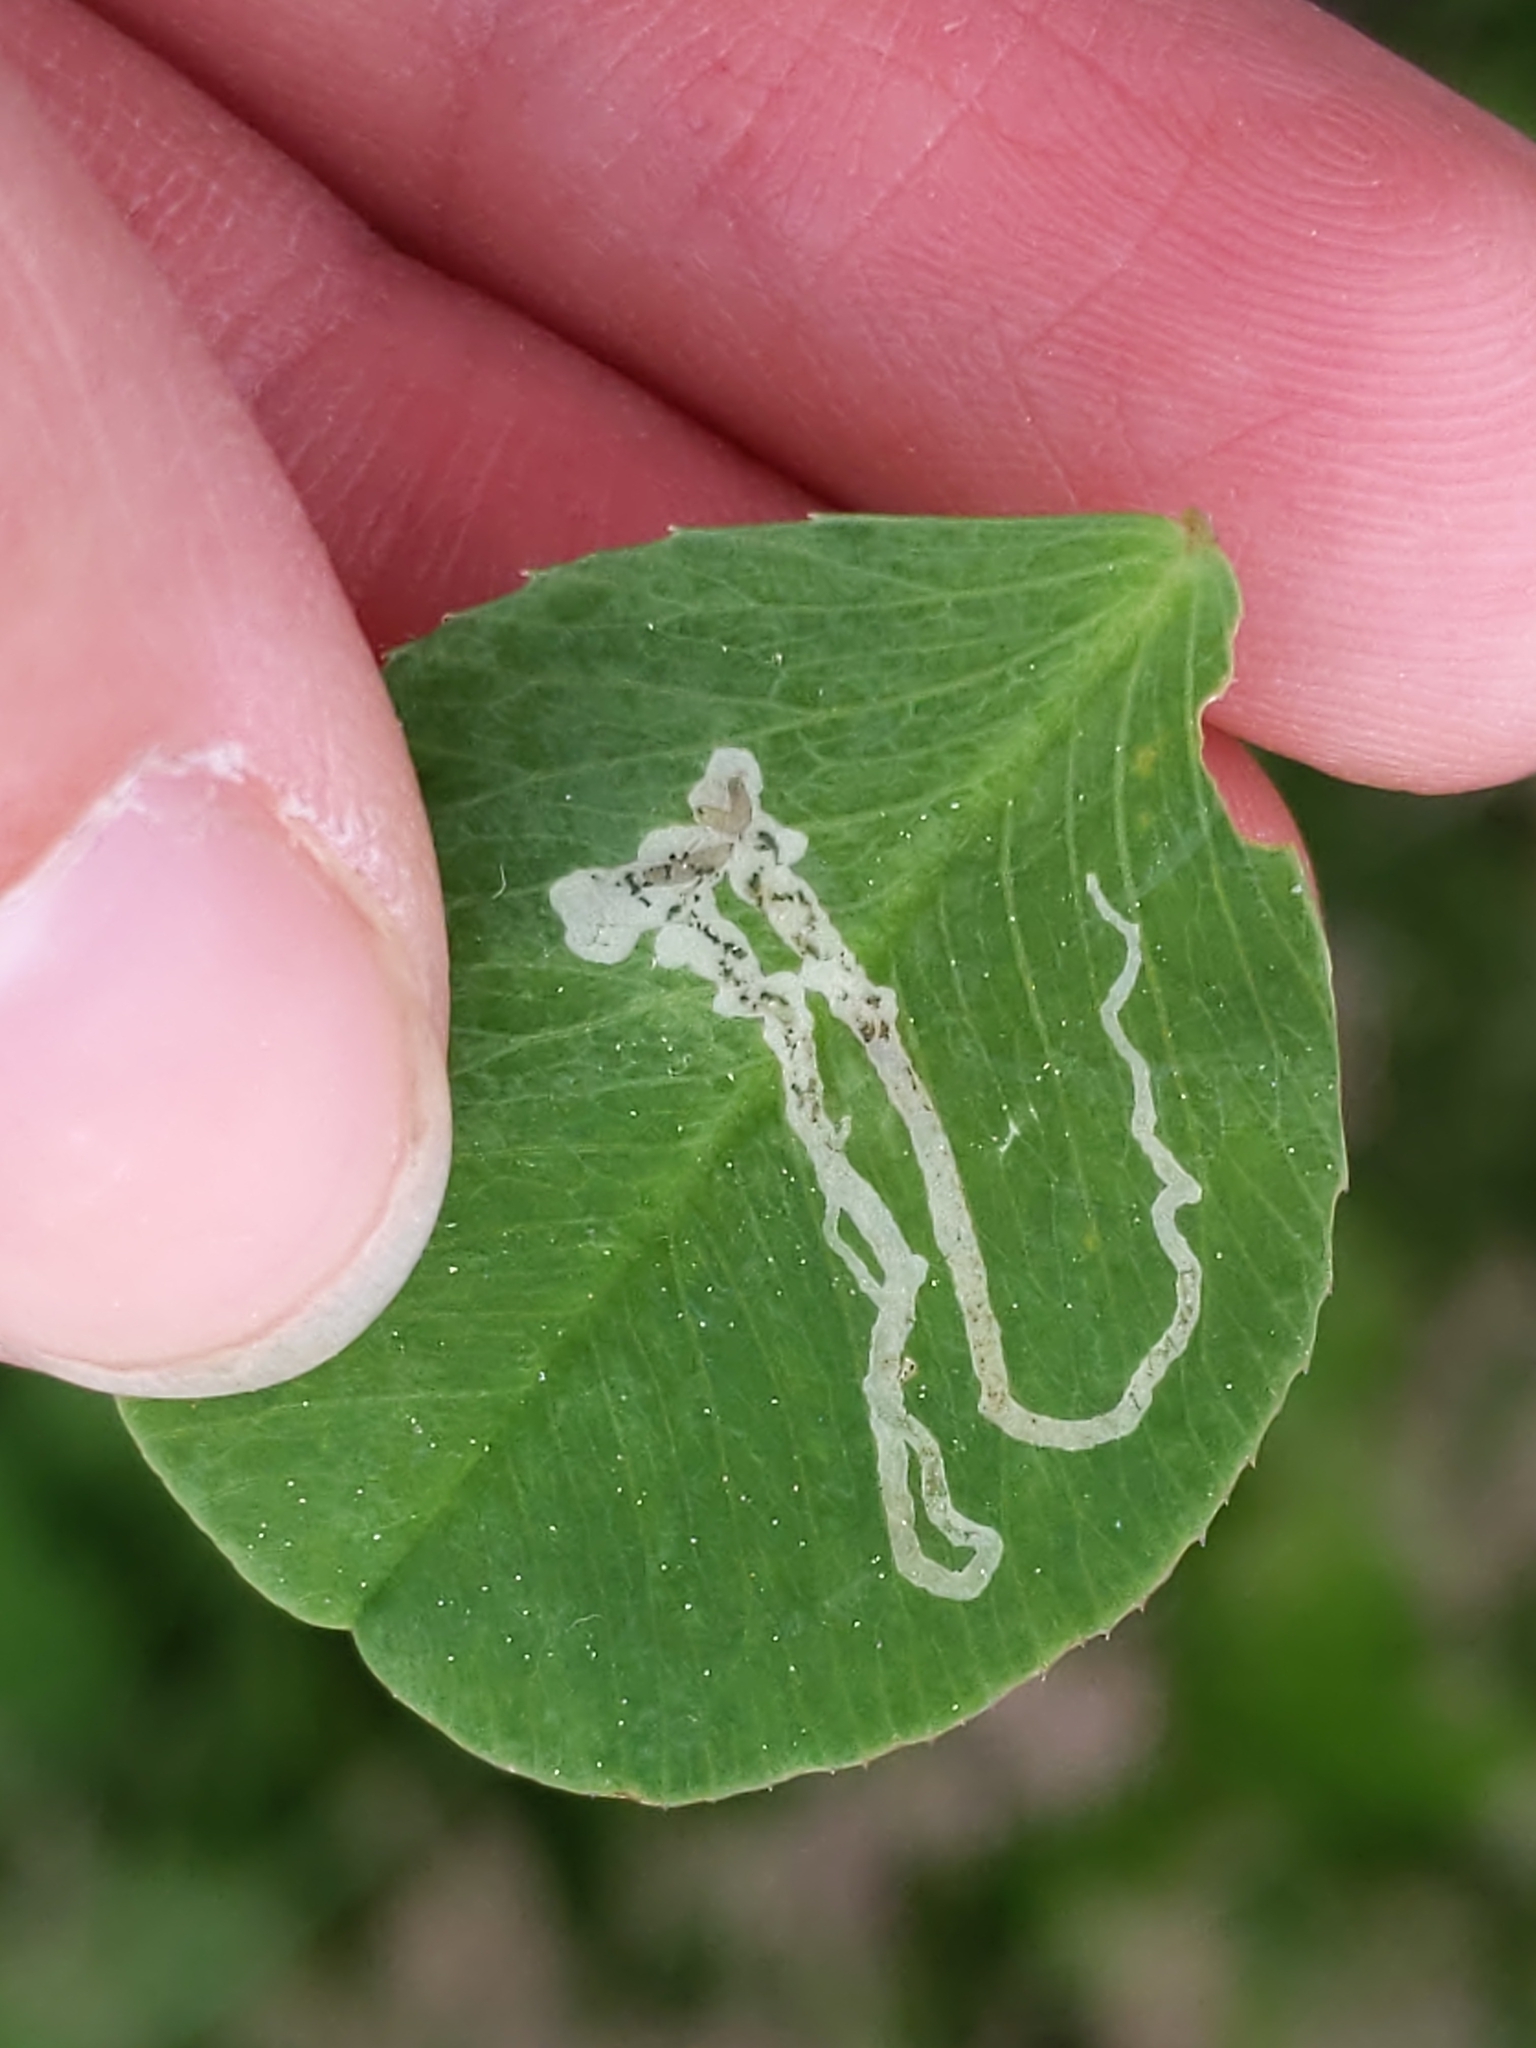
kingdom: Animalia
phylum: Arthropoda
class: Insecta
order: Diptera
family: Agromyzidae
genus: Liriomyza
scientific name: Liriomyza
